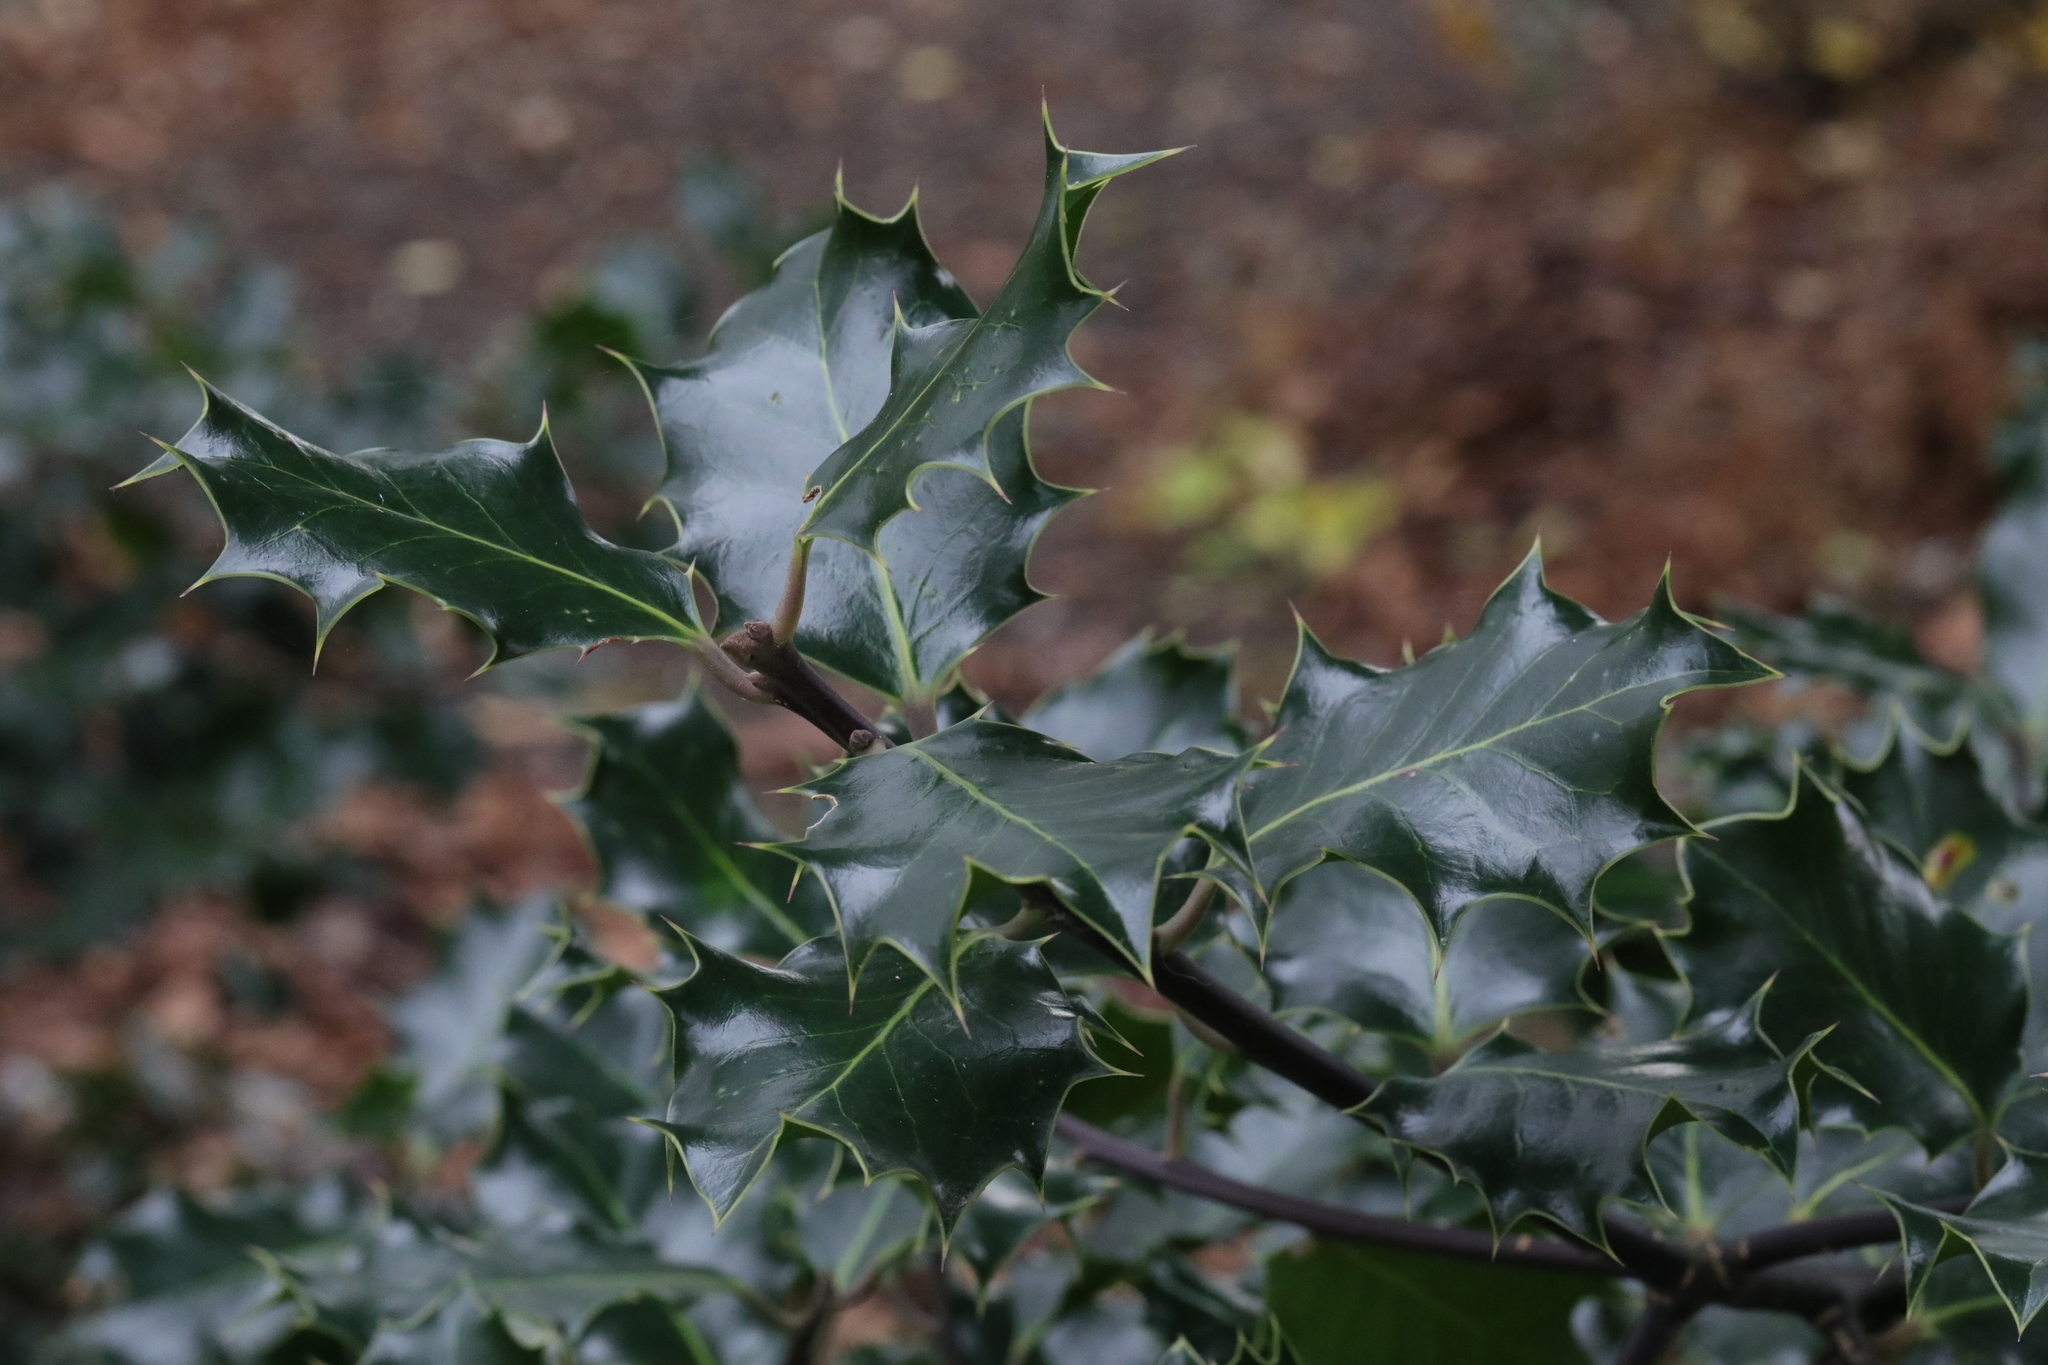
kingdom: Plantae
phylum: Tracheophyta
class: Magnoliopsida
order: Aquifoliales
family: Aquifoliaceae
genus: Ilex
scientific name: Ilex aquifolium
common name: English holly
